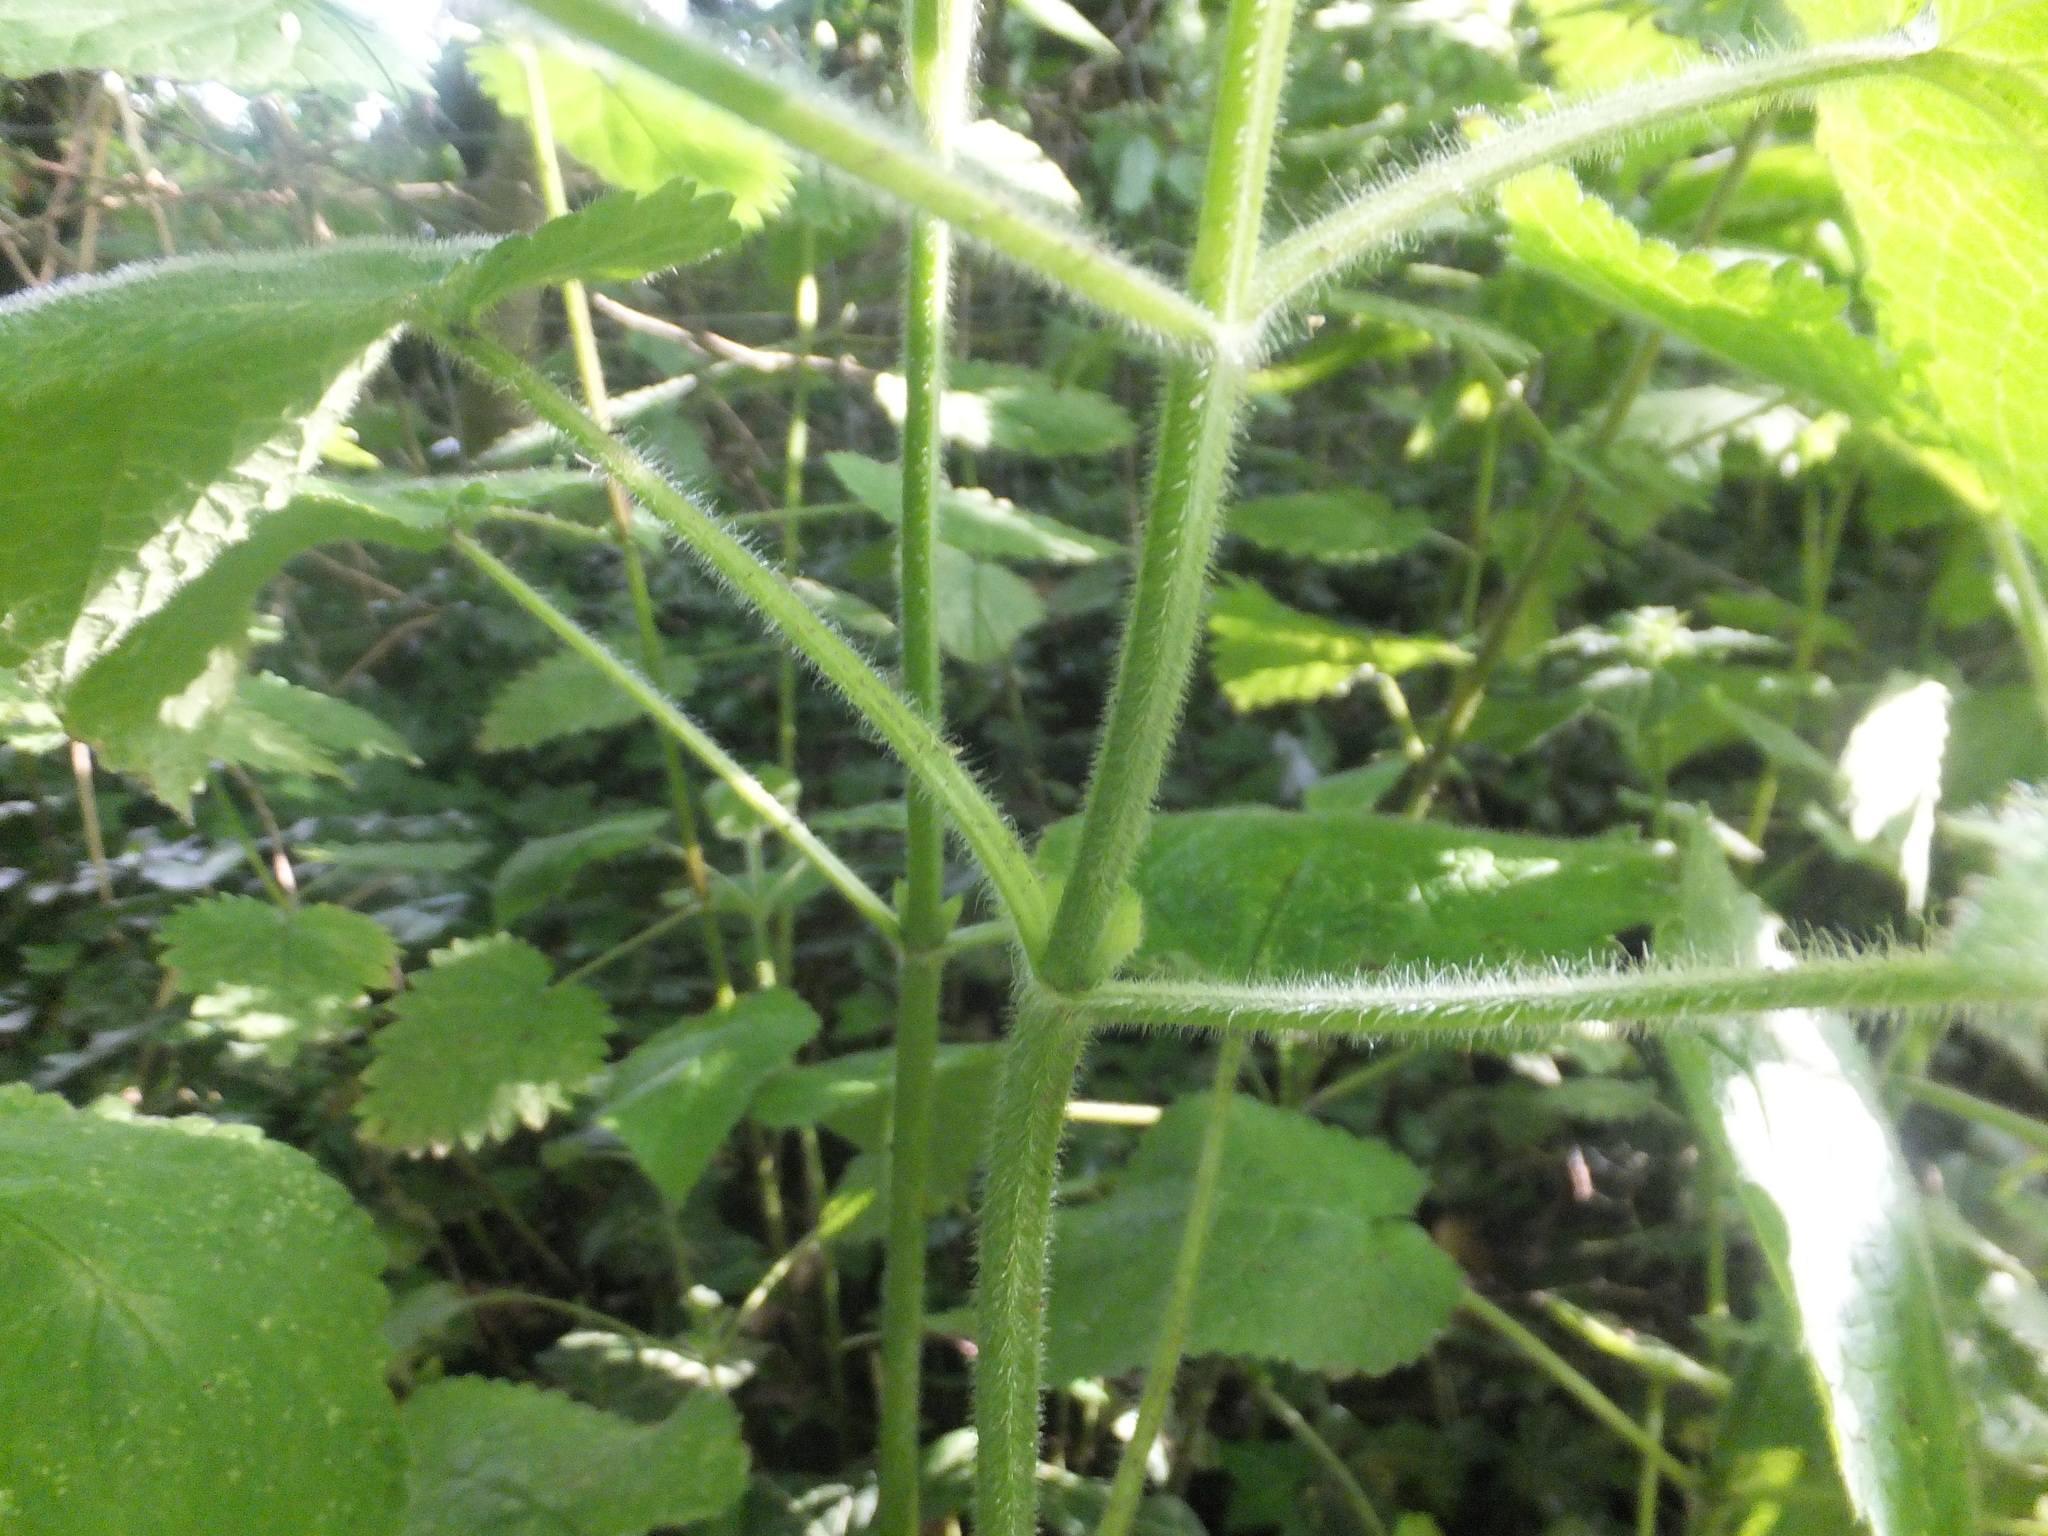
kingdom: Plantae
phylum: Tracheophyta
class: Magnoliopsida
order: Lamiales
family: Lamiaceae
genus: Stachys
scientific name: Stachys sylvatica
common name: Hedge woundwort
